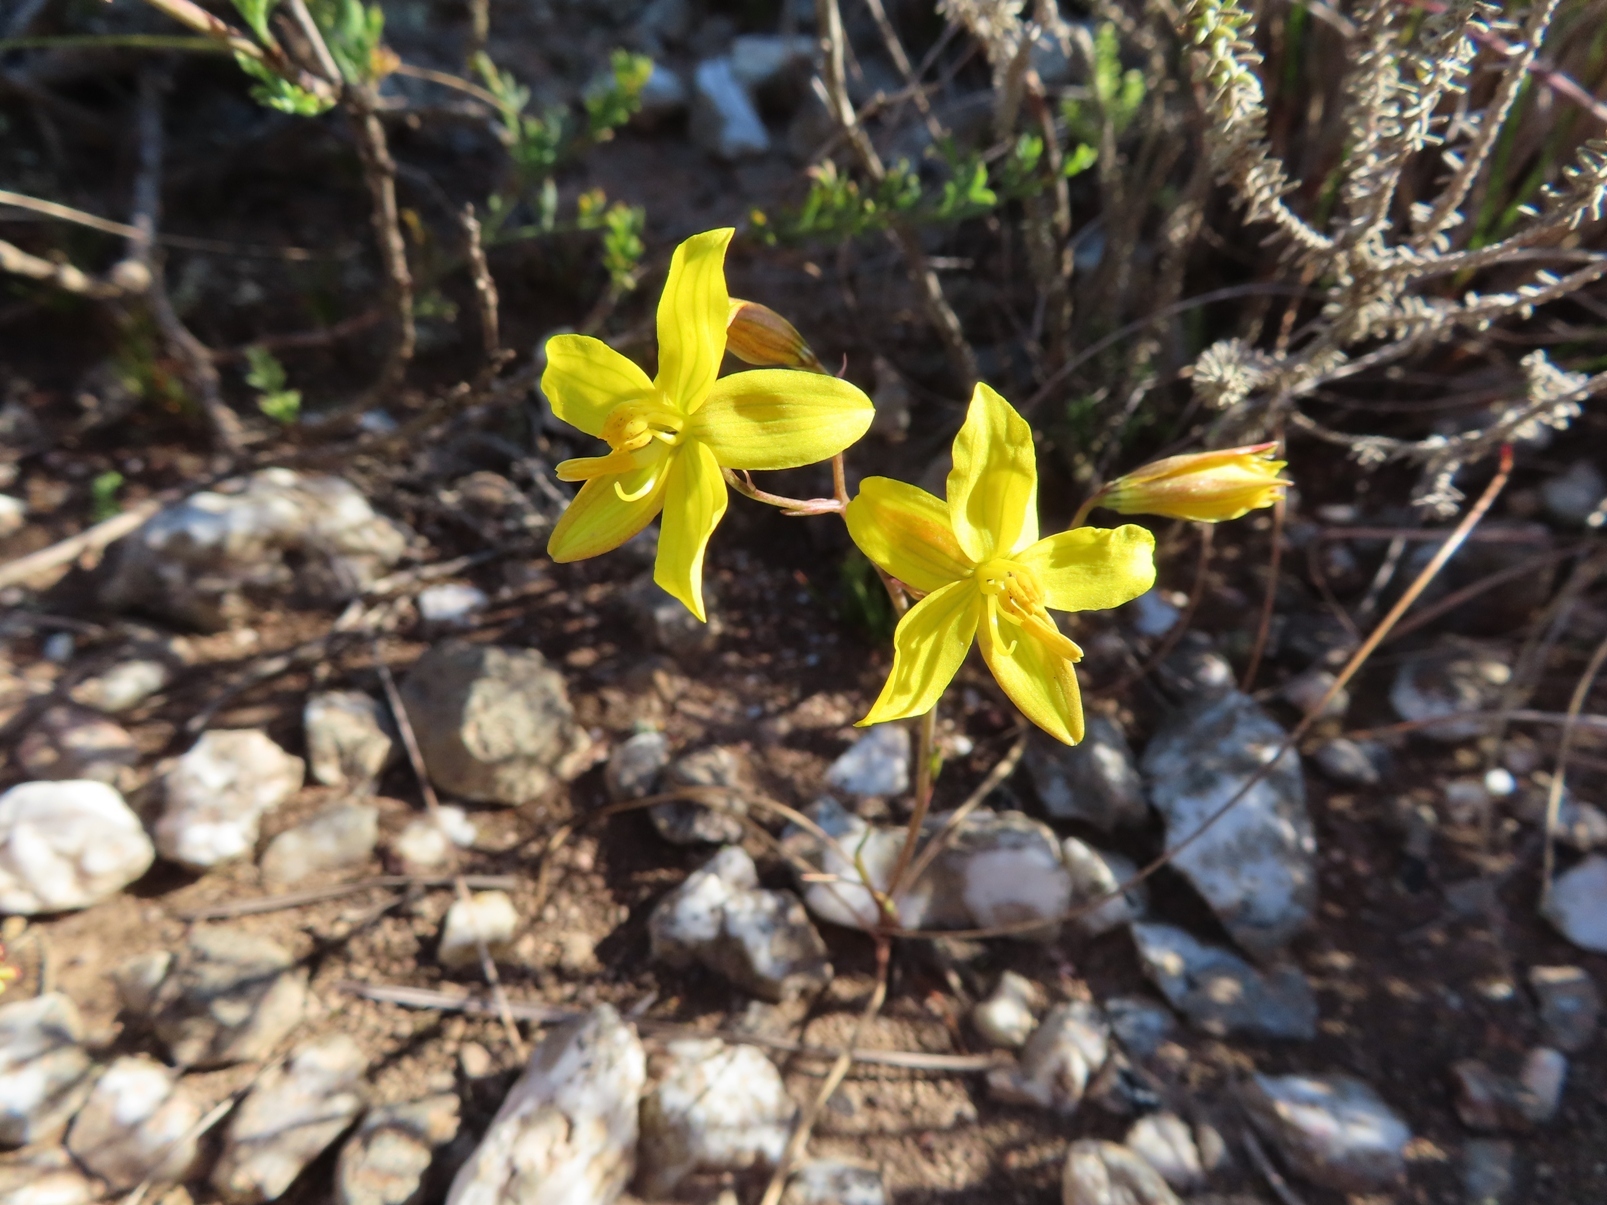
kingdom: Plantae
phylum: Tracheophyta
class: Liliopsida
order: Asparagales
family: Tecophilaeaceae
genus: Cyanella
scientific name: Cyanella lutea
